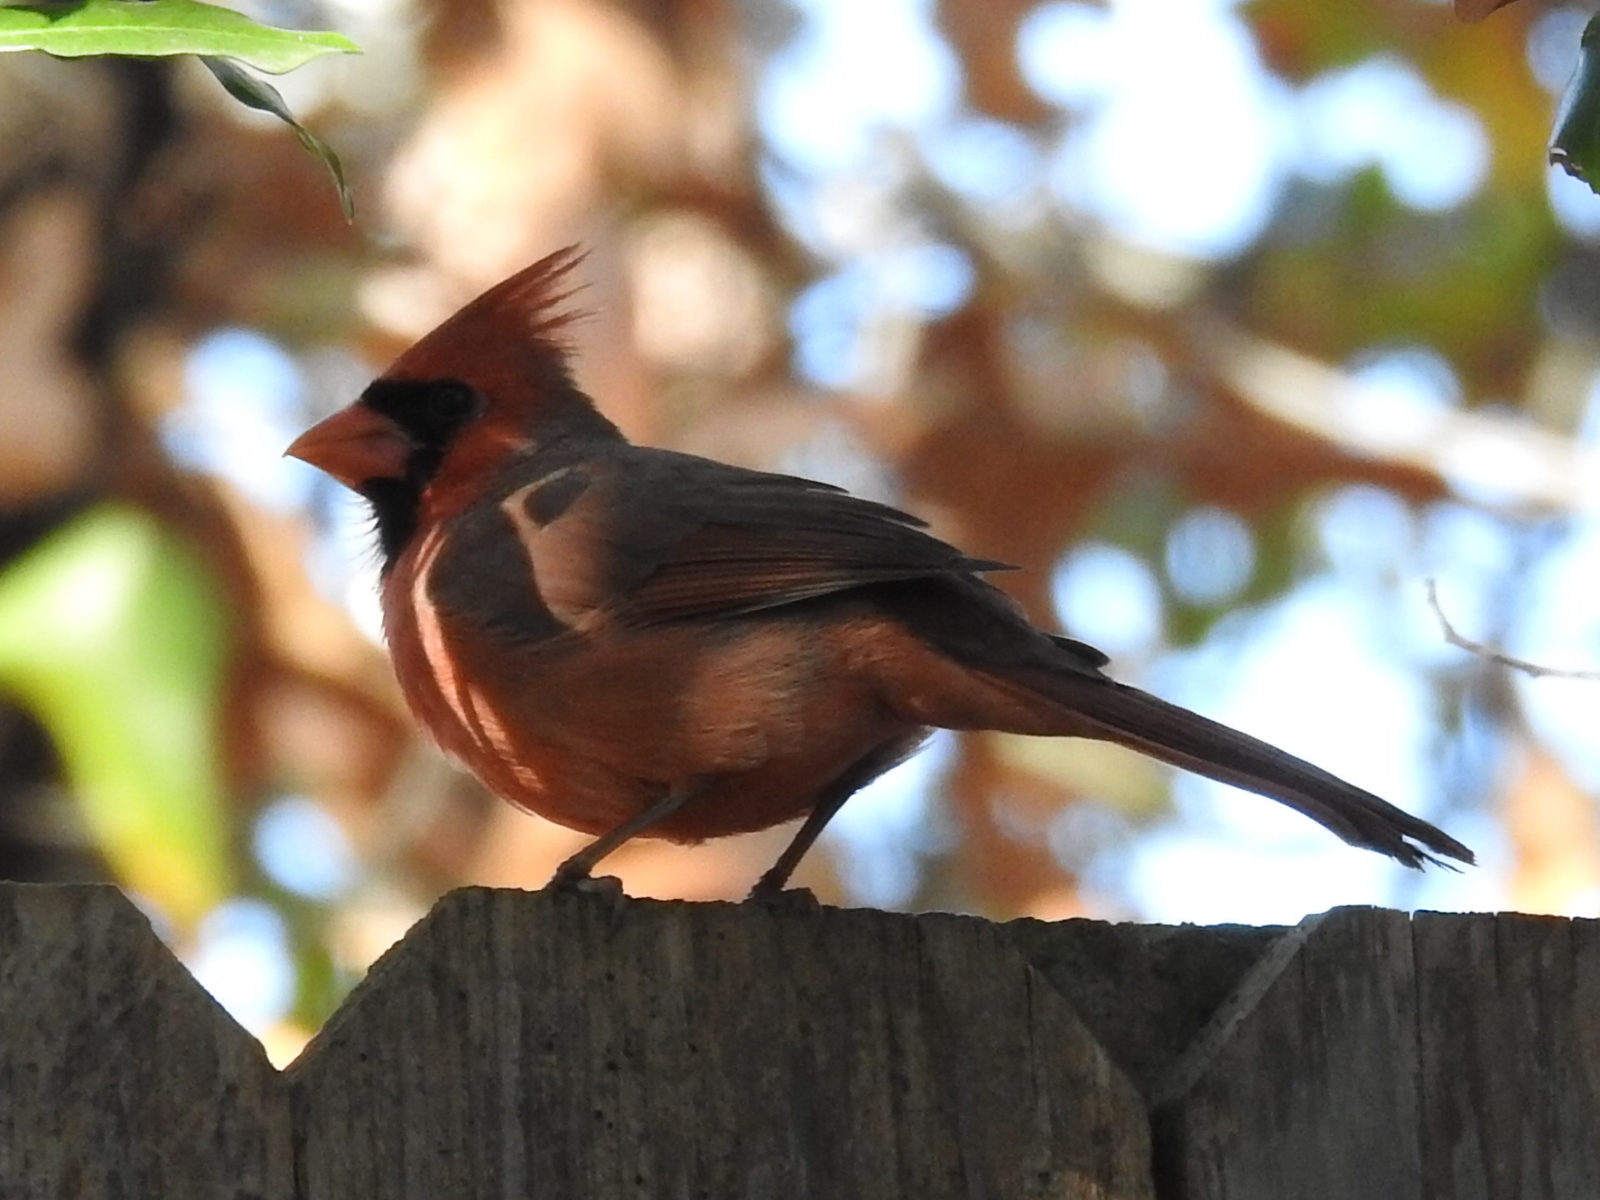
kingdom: Animalia
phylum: Chordata
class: Aves
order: Passeriformes
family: Cardinalidae
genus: Cardinalis
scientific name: Cardinalis cardinalis
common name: Northern cardinal
